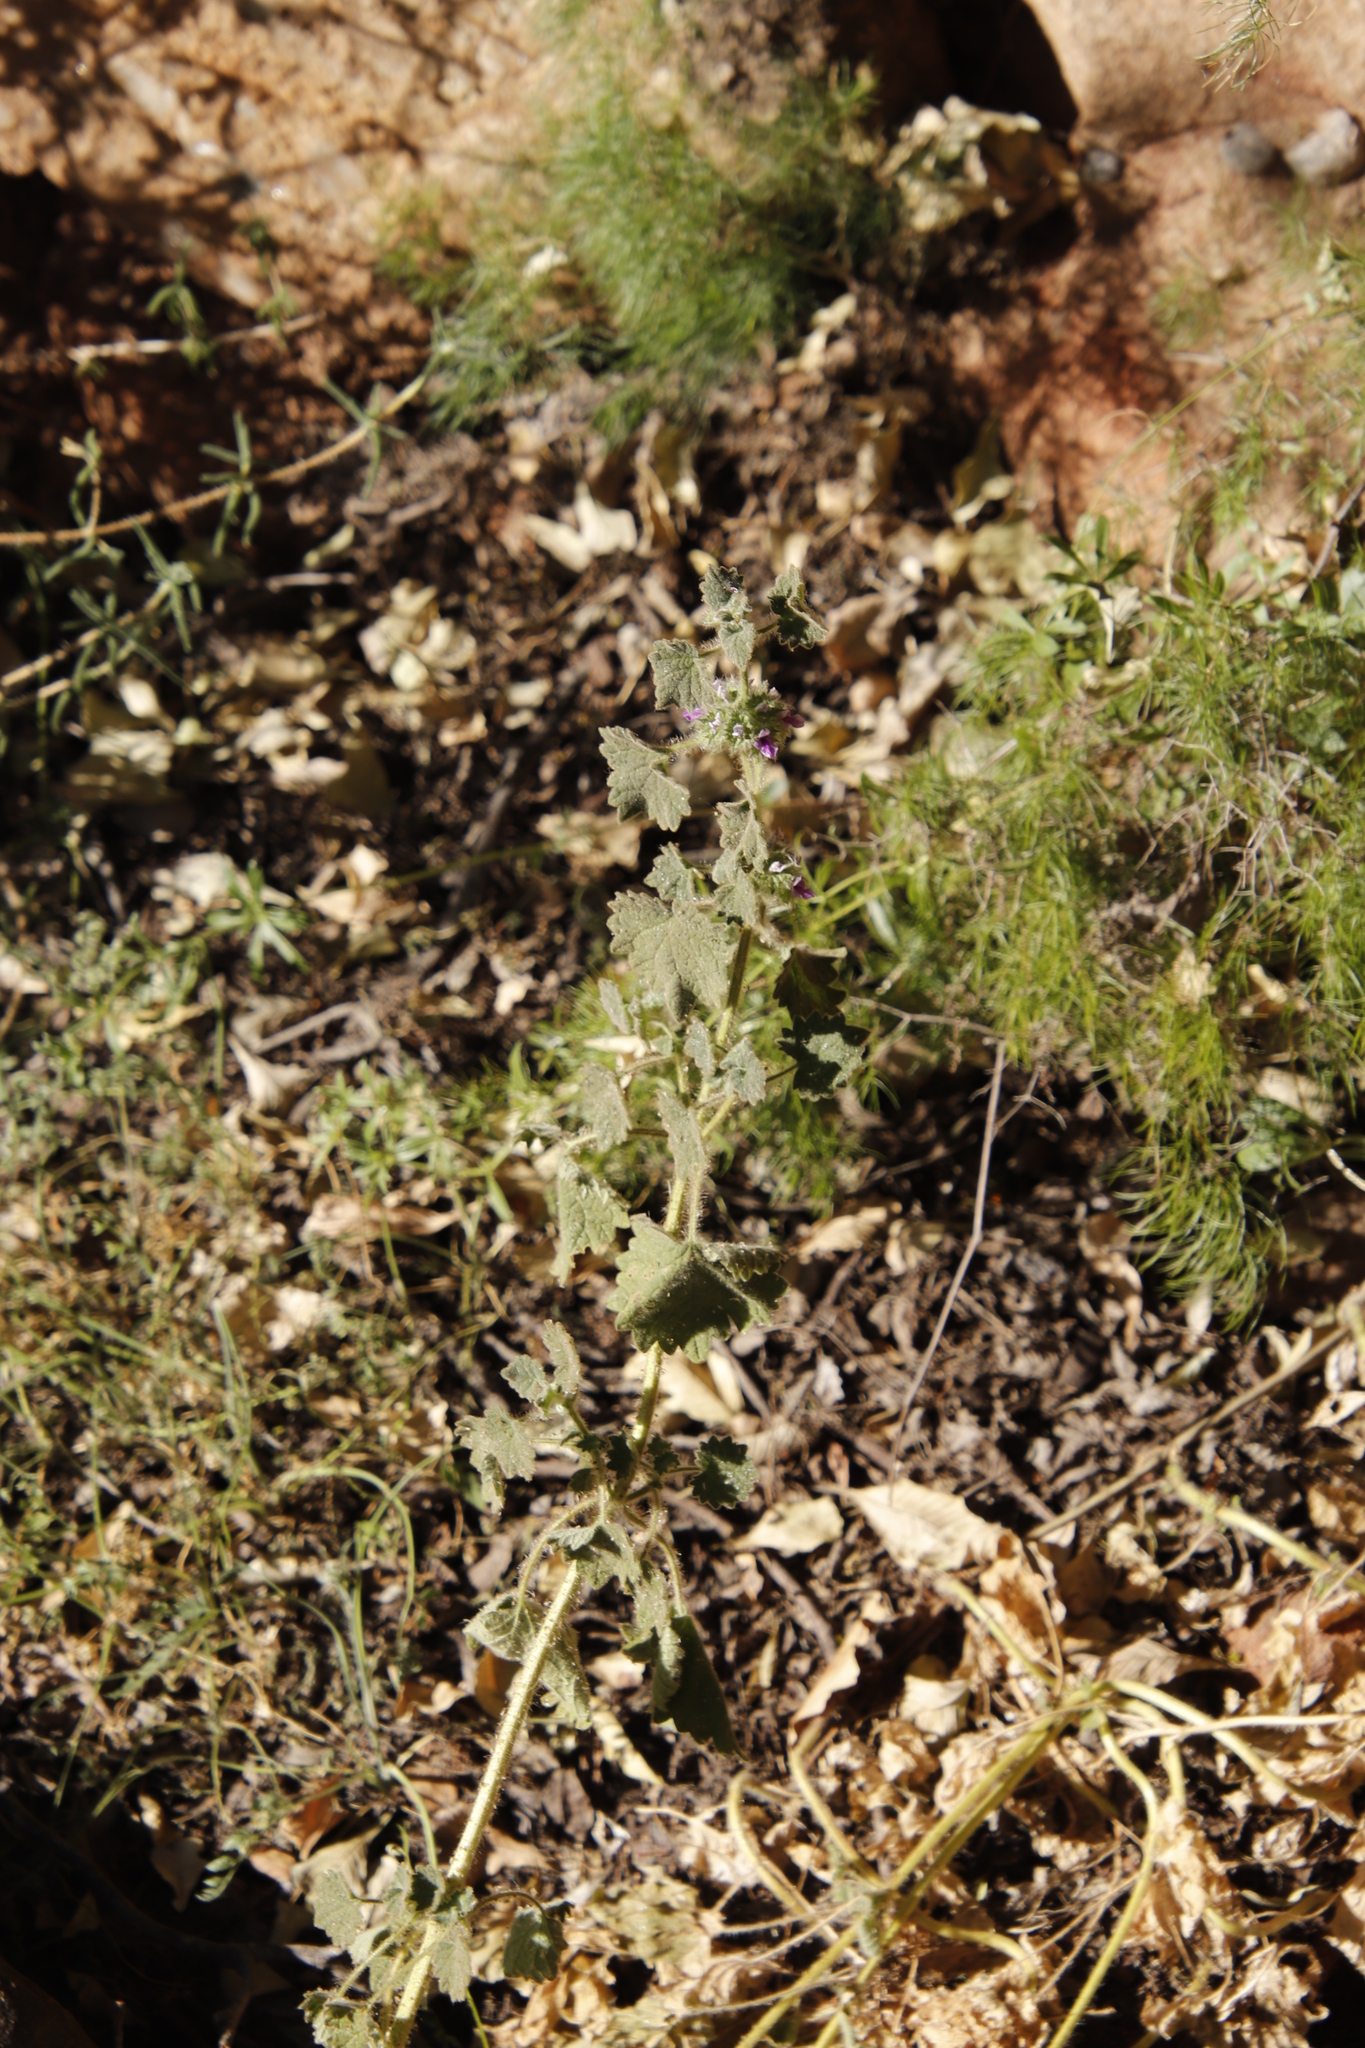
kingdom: Plantae
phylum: Tracheophyta
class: Magnoliopsida
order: Lamiales
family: Lamiaceae
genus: Pseudodictamnus
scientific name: Pseudodictamnus africanus
